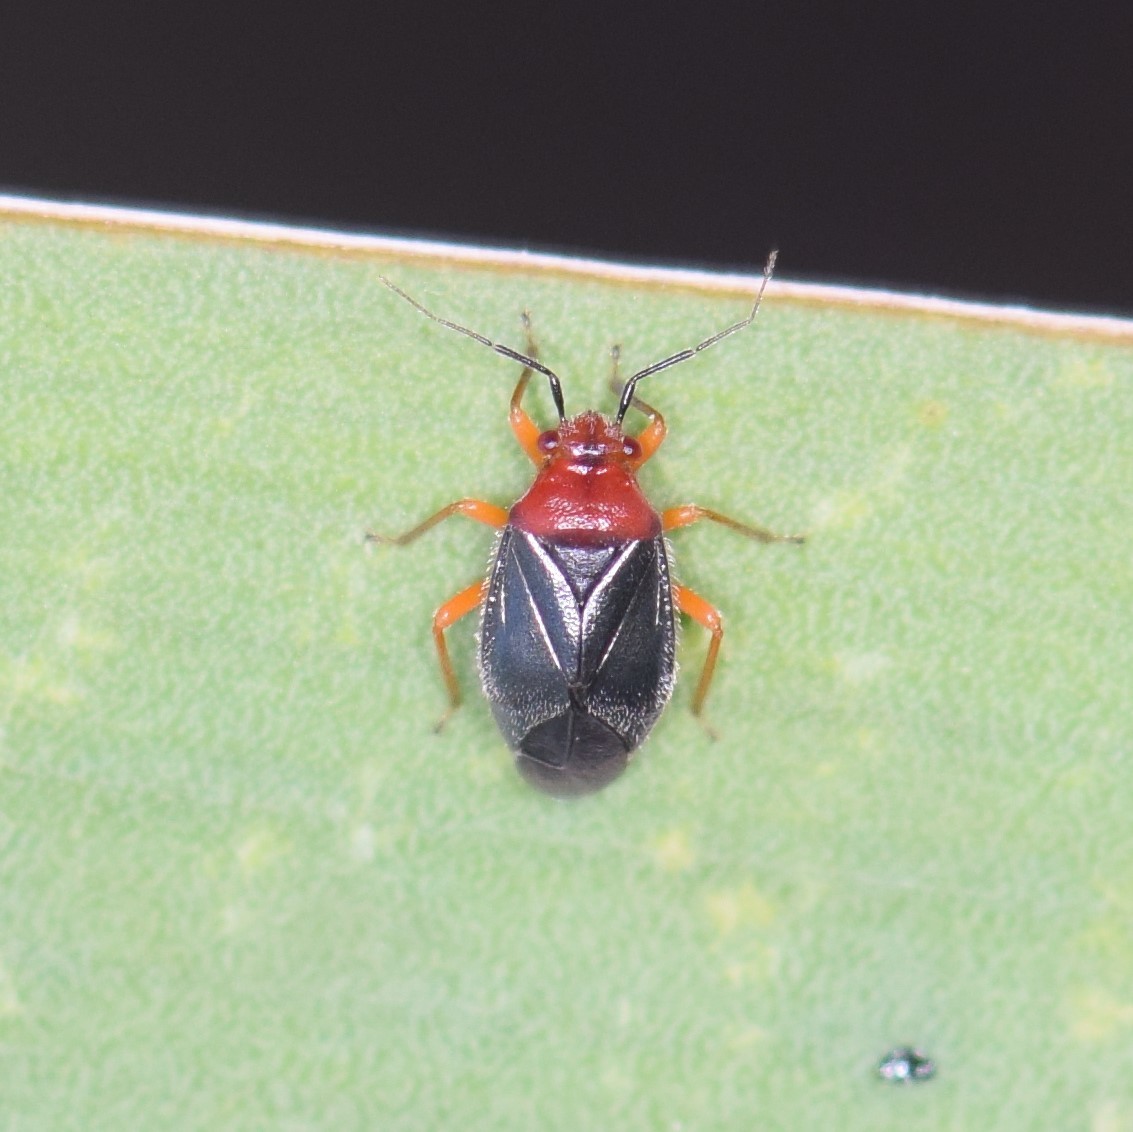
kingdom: Animalia
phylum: Arthropoda
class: Insecta
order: Hemiptera
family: Miridae
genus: Halticotoma
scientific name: Halticotoma valida
